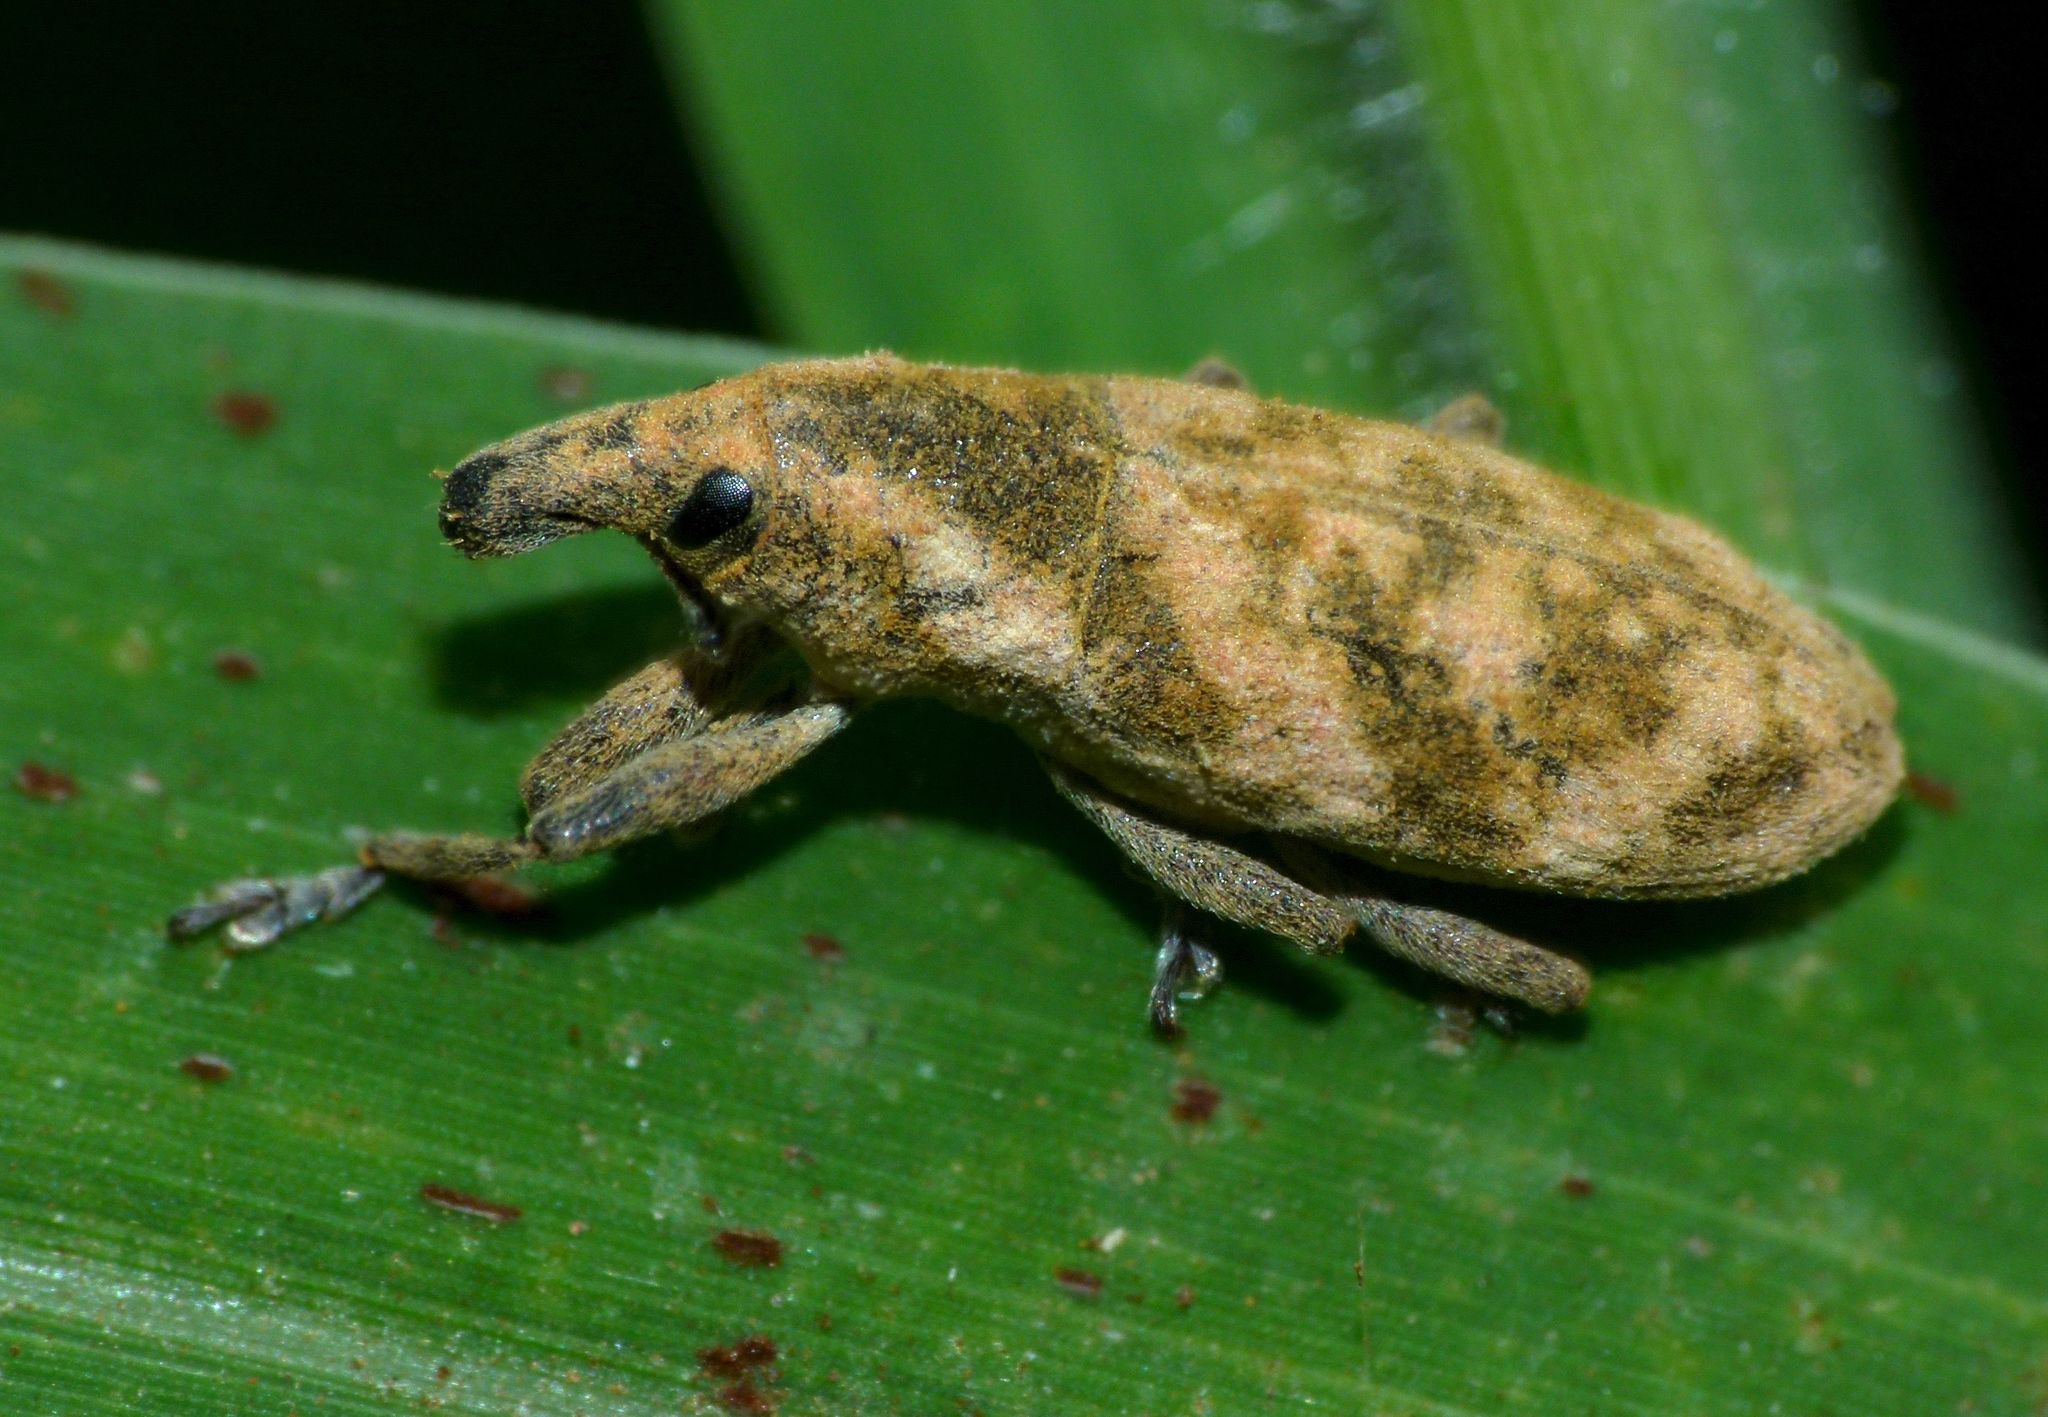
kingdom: Animalia
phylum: Arthropoda
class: Insecta
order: Coleoptera
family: Curculionidae
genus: Gasteroclisus
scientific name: Gasteroclisus
